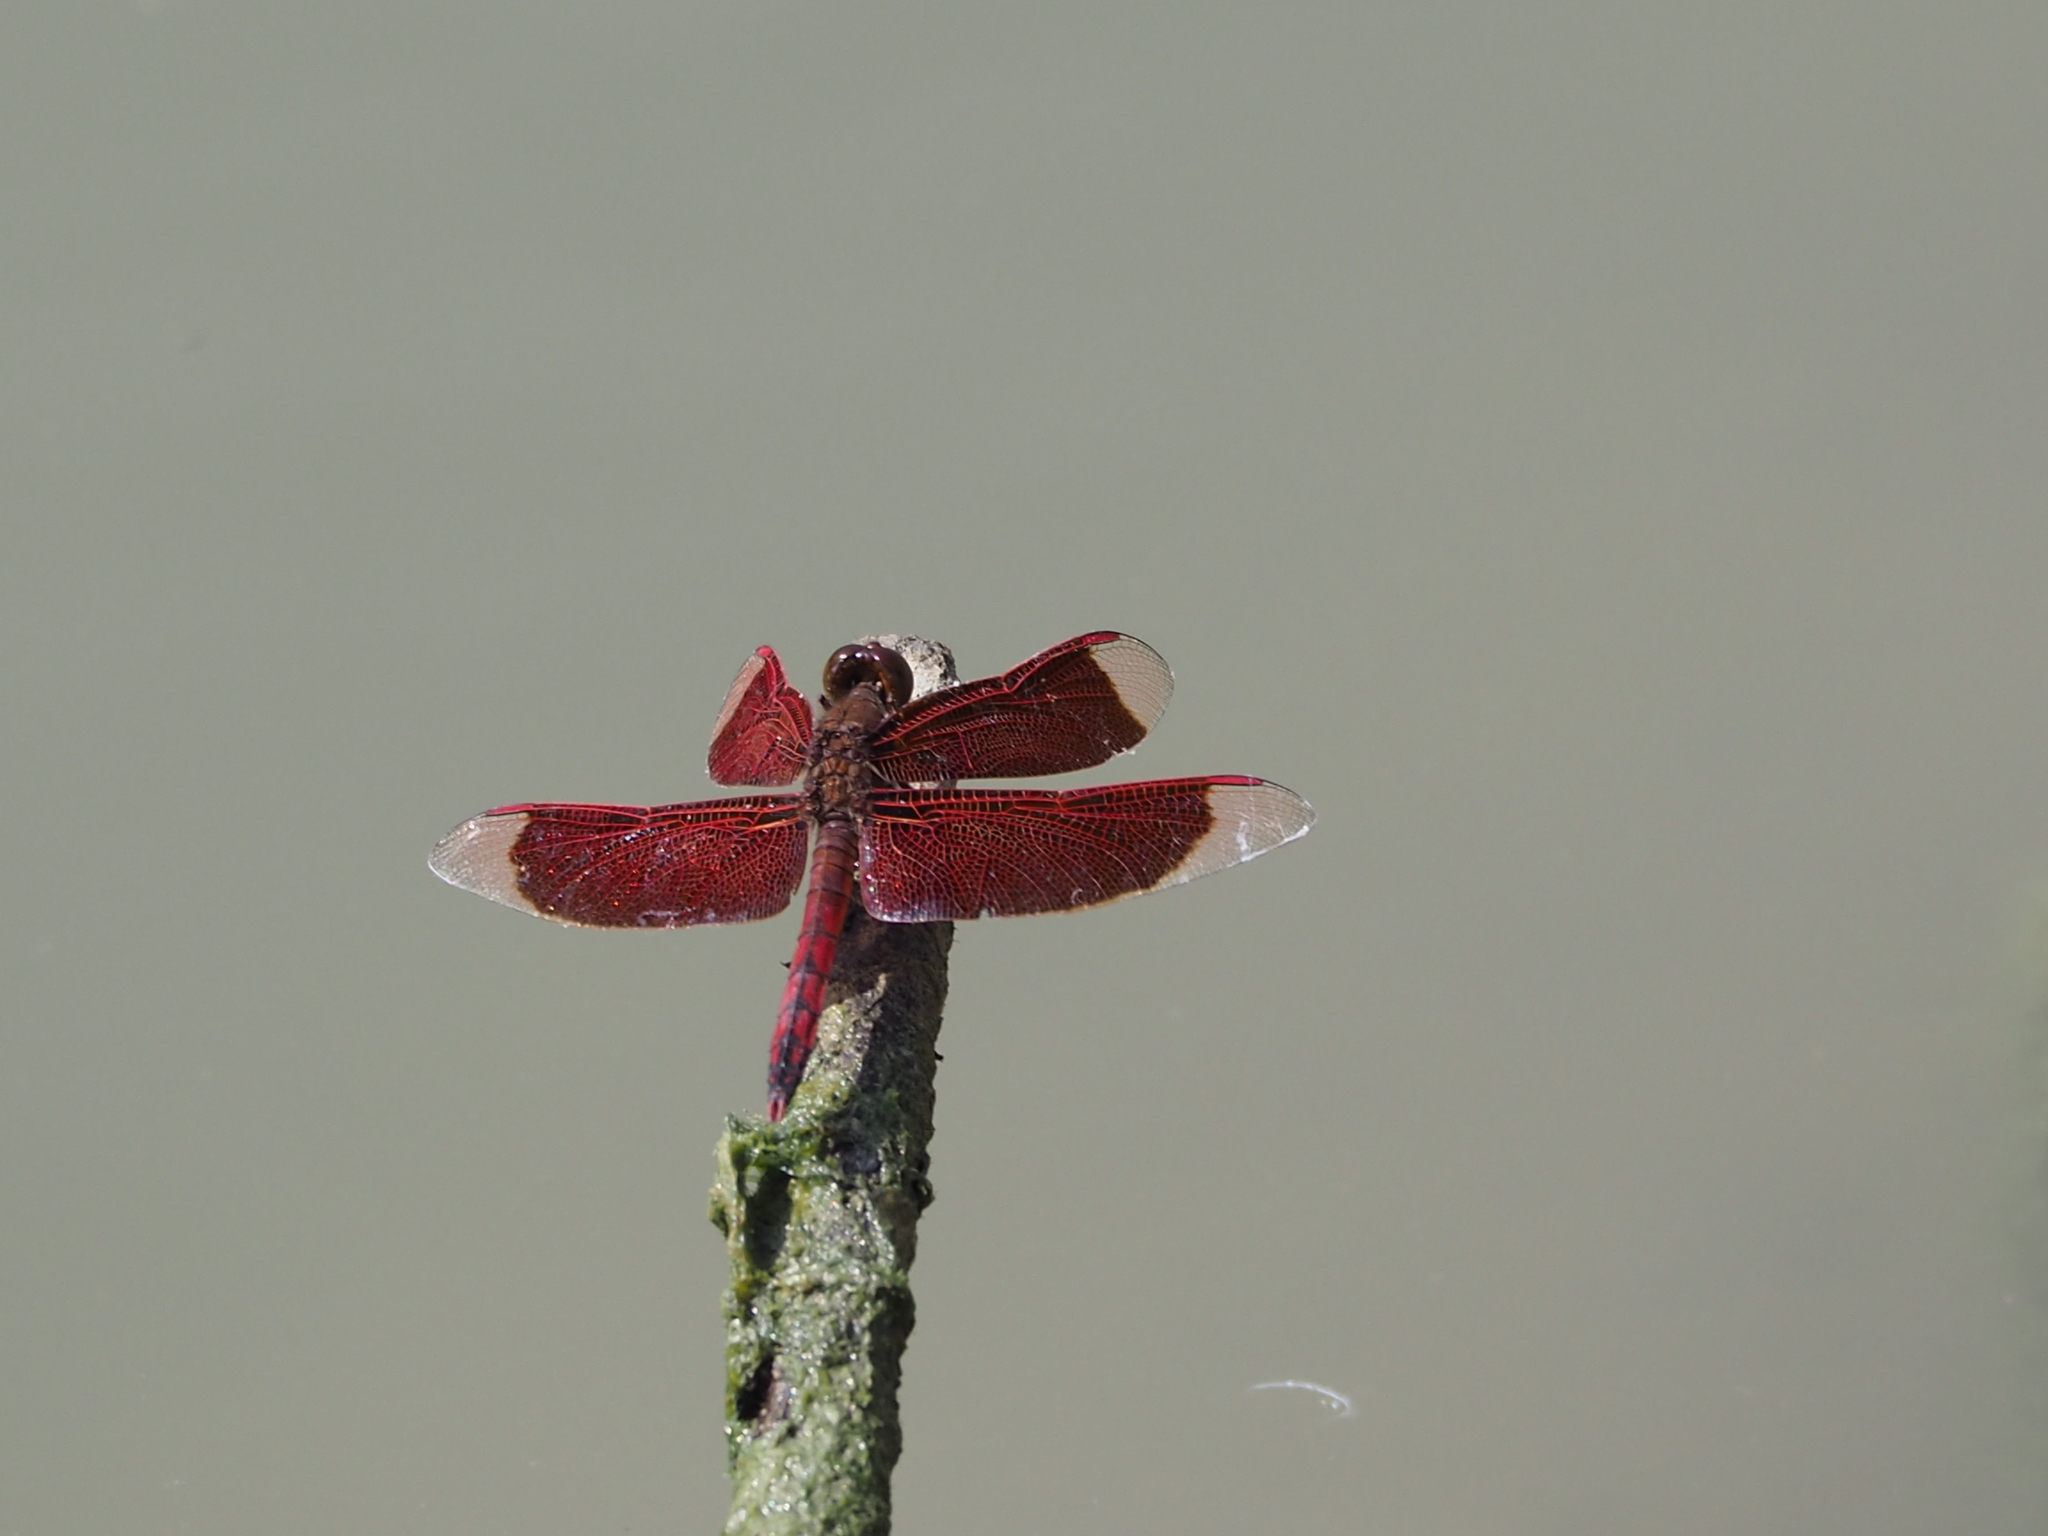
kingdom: Animalia
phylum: Arthropoda
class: Insecta
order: Odonata
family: Libellulidae
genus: Neurothemis
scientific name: Neurothemis taiwanensis
